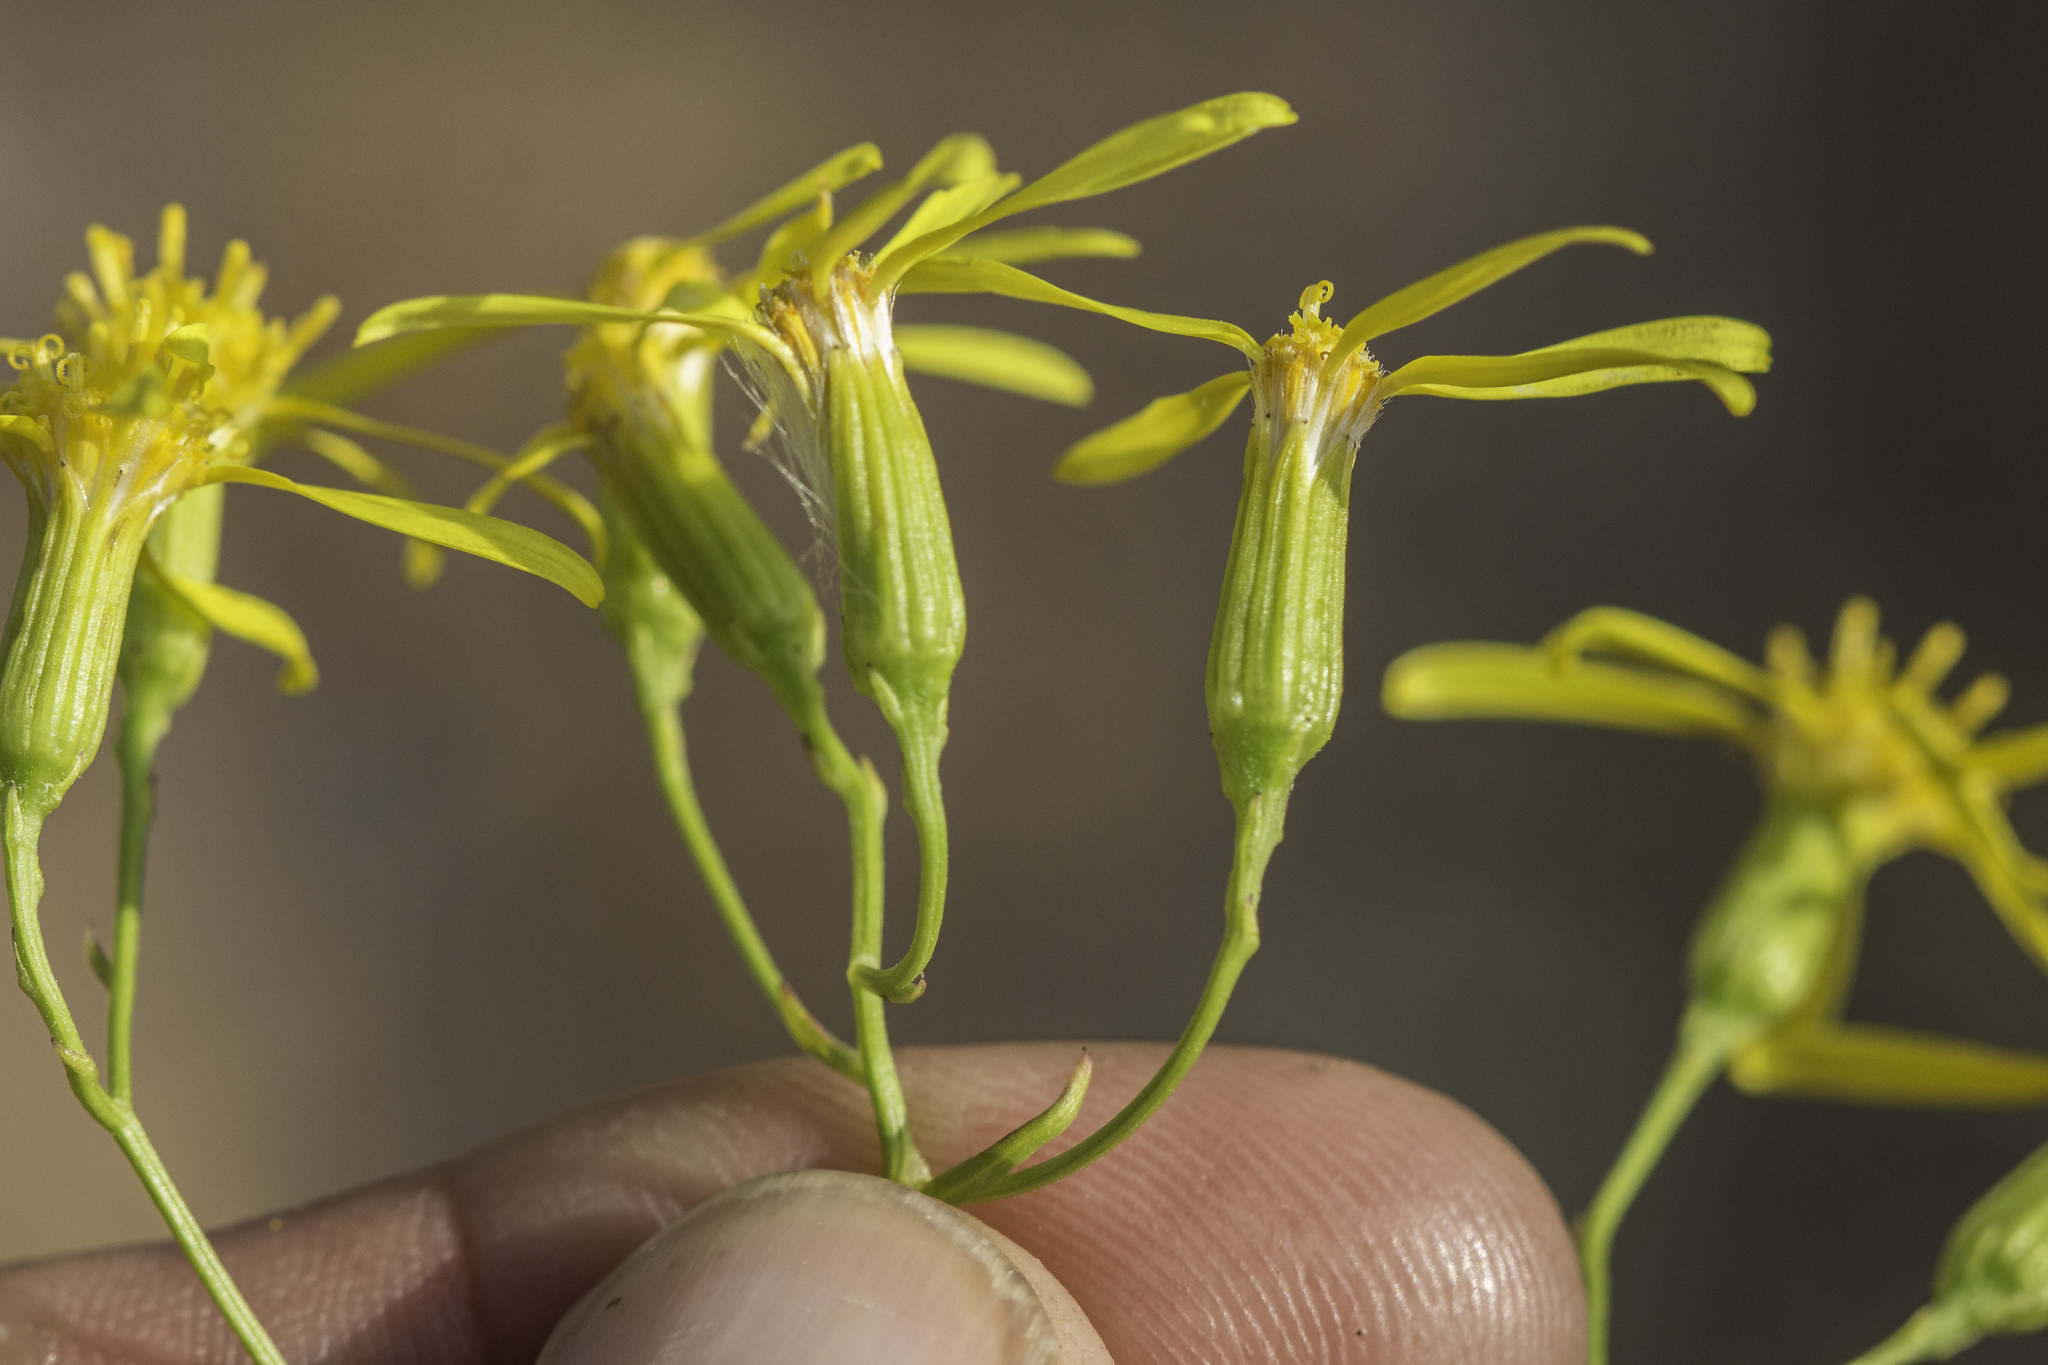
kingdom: Plantae
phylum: Tracheophyta
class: Magnoliopsida
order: Asterales
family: Asteraceae
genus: Senecio
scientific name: Senecio spartioides
